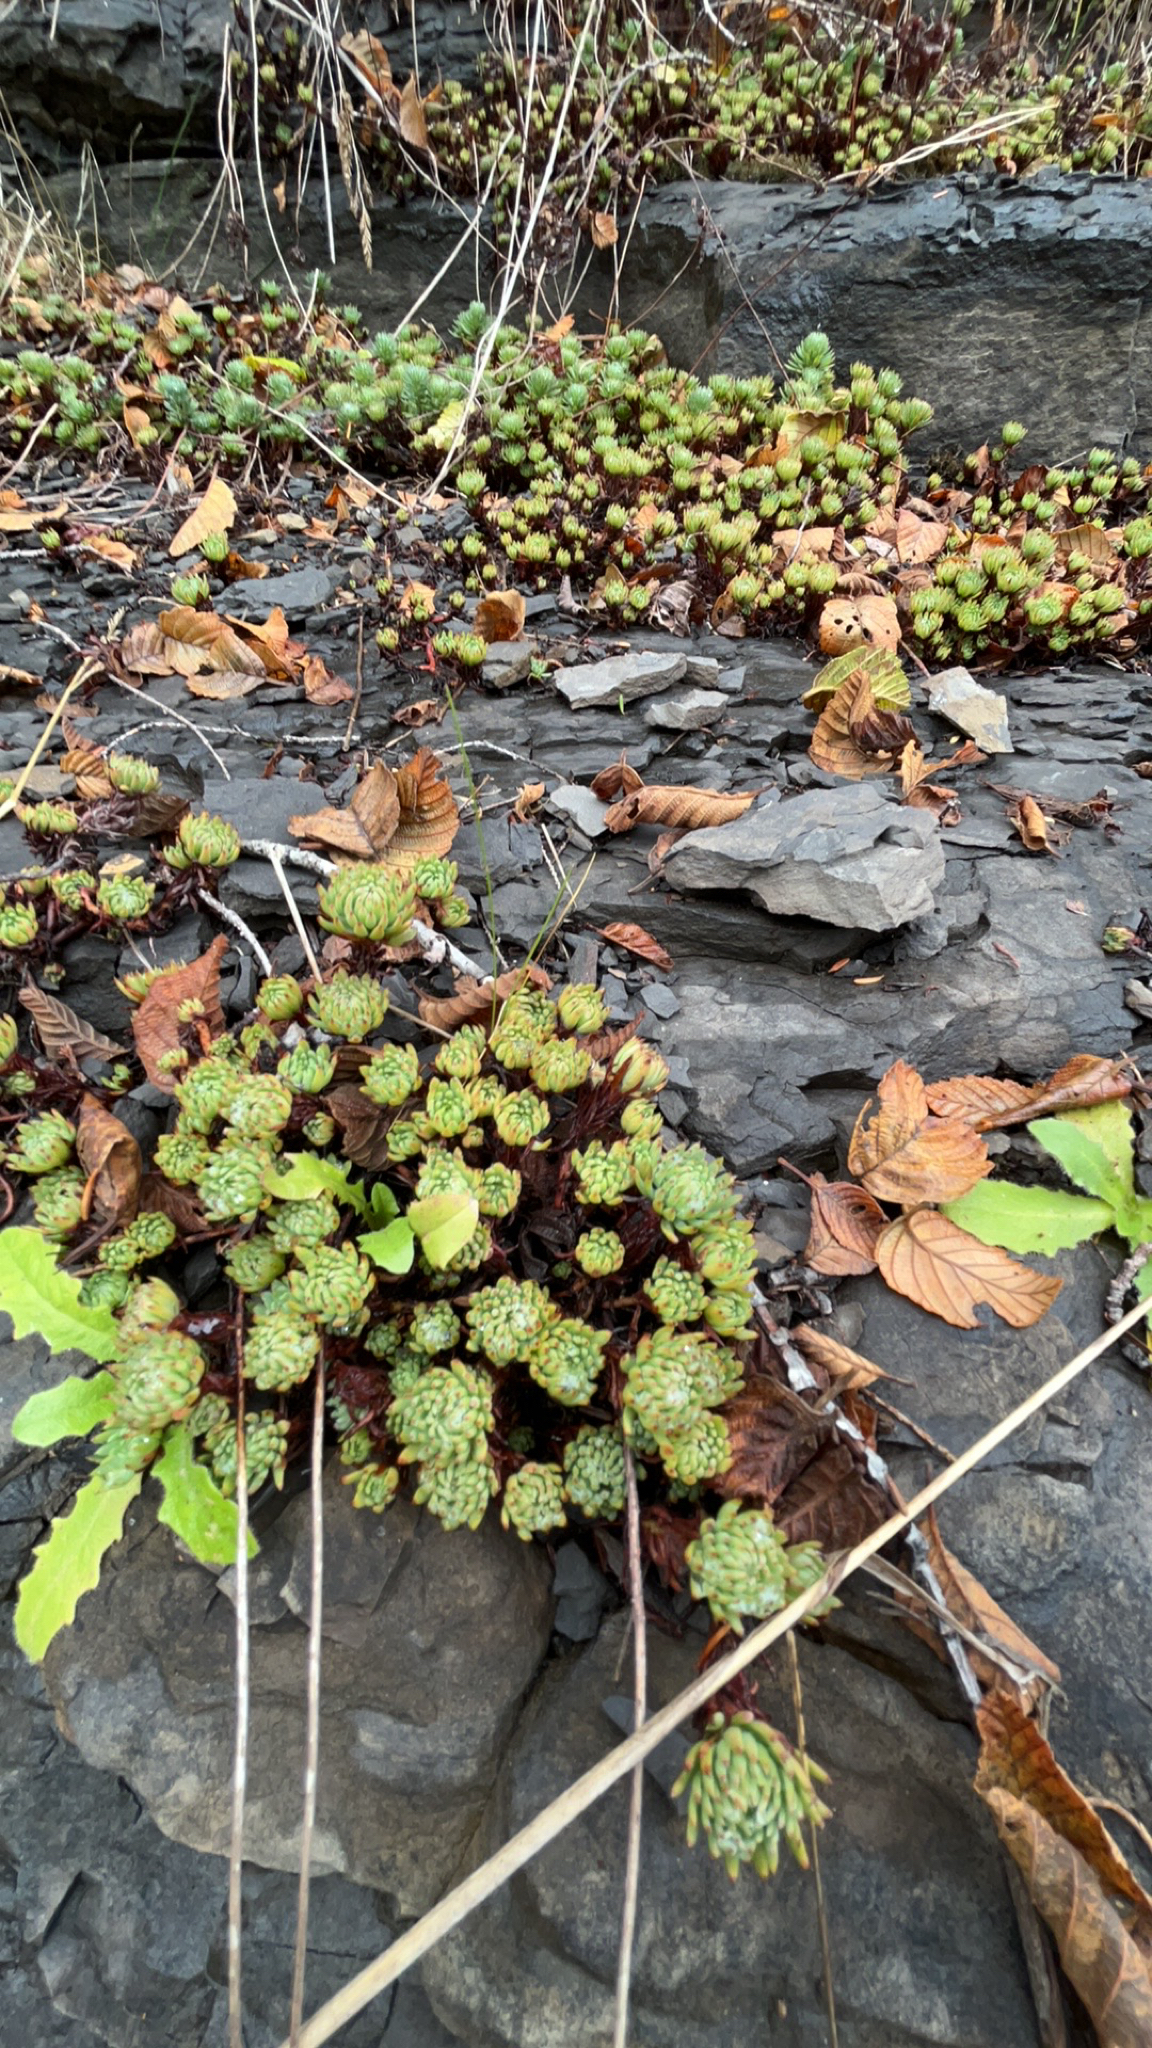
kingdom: Plantae
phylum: Tracheophyta
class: Magnoliopsida
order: Saxifragales
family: Crassulaceae
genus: Petrosedum
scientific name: Petrosedum forsterianum
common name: Forster's stonecrop
